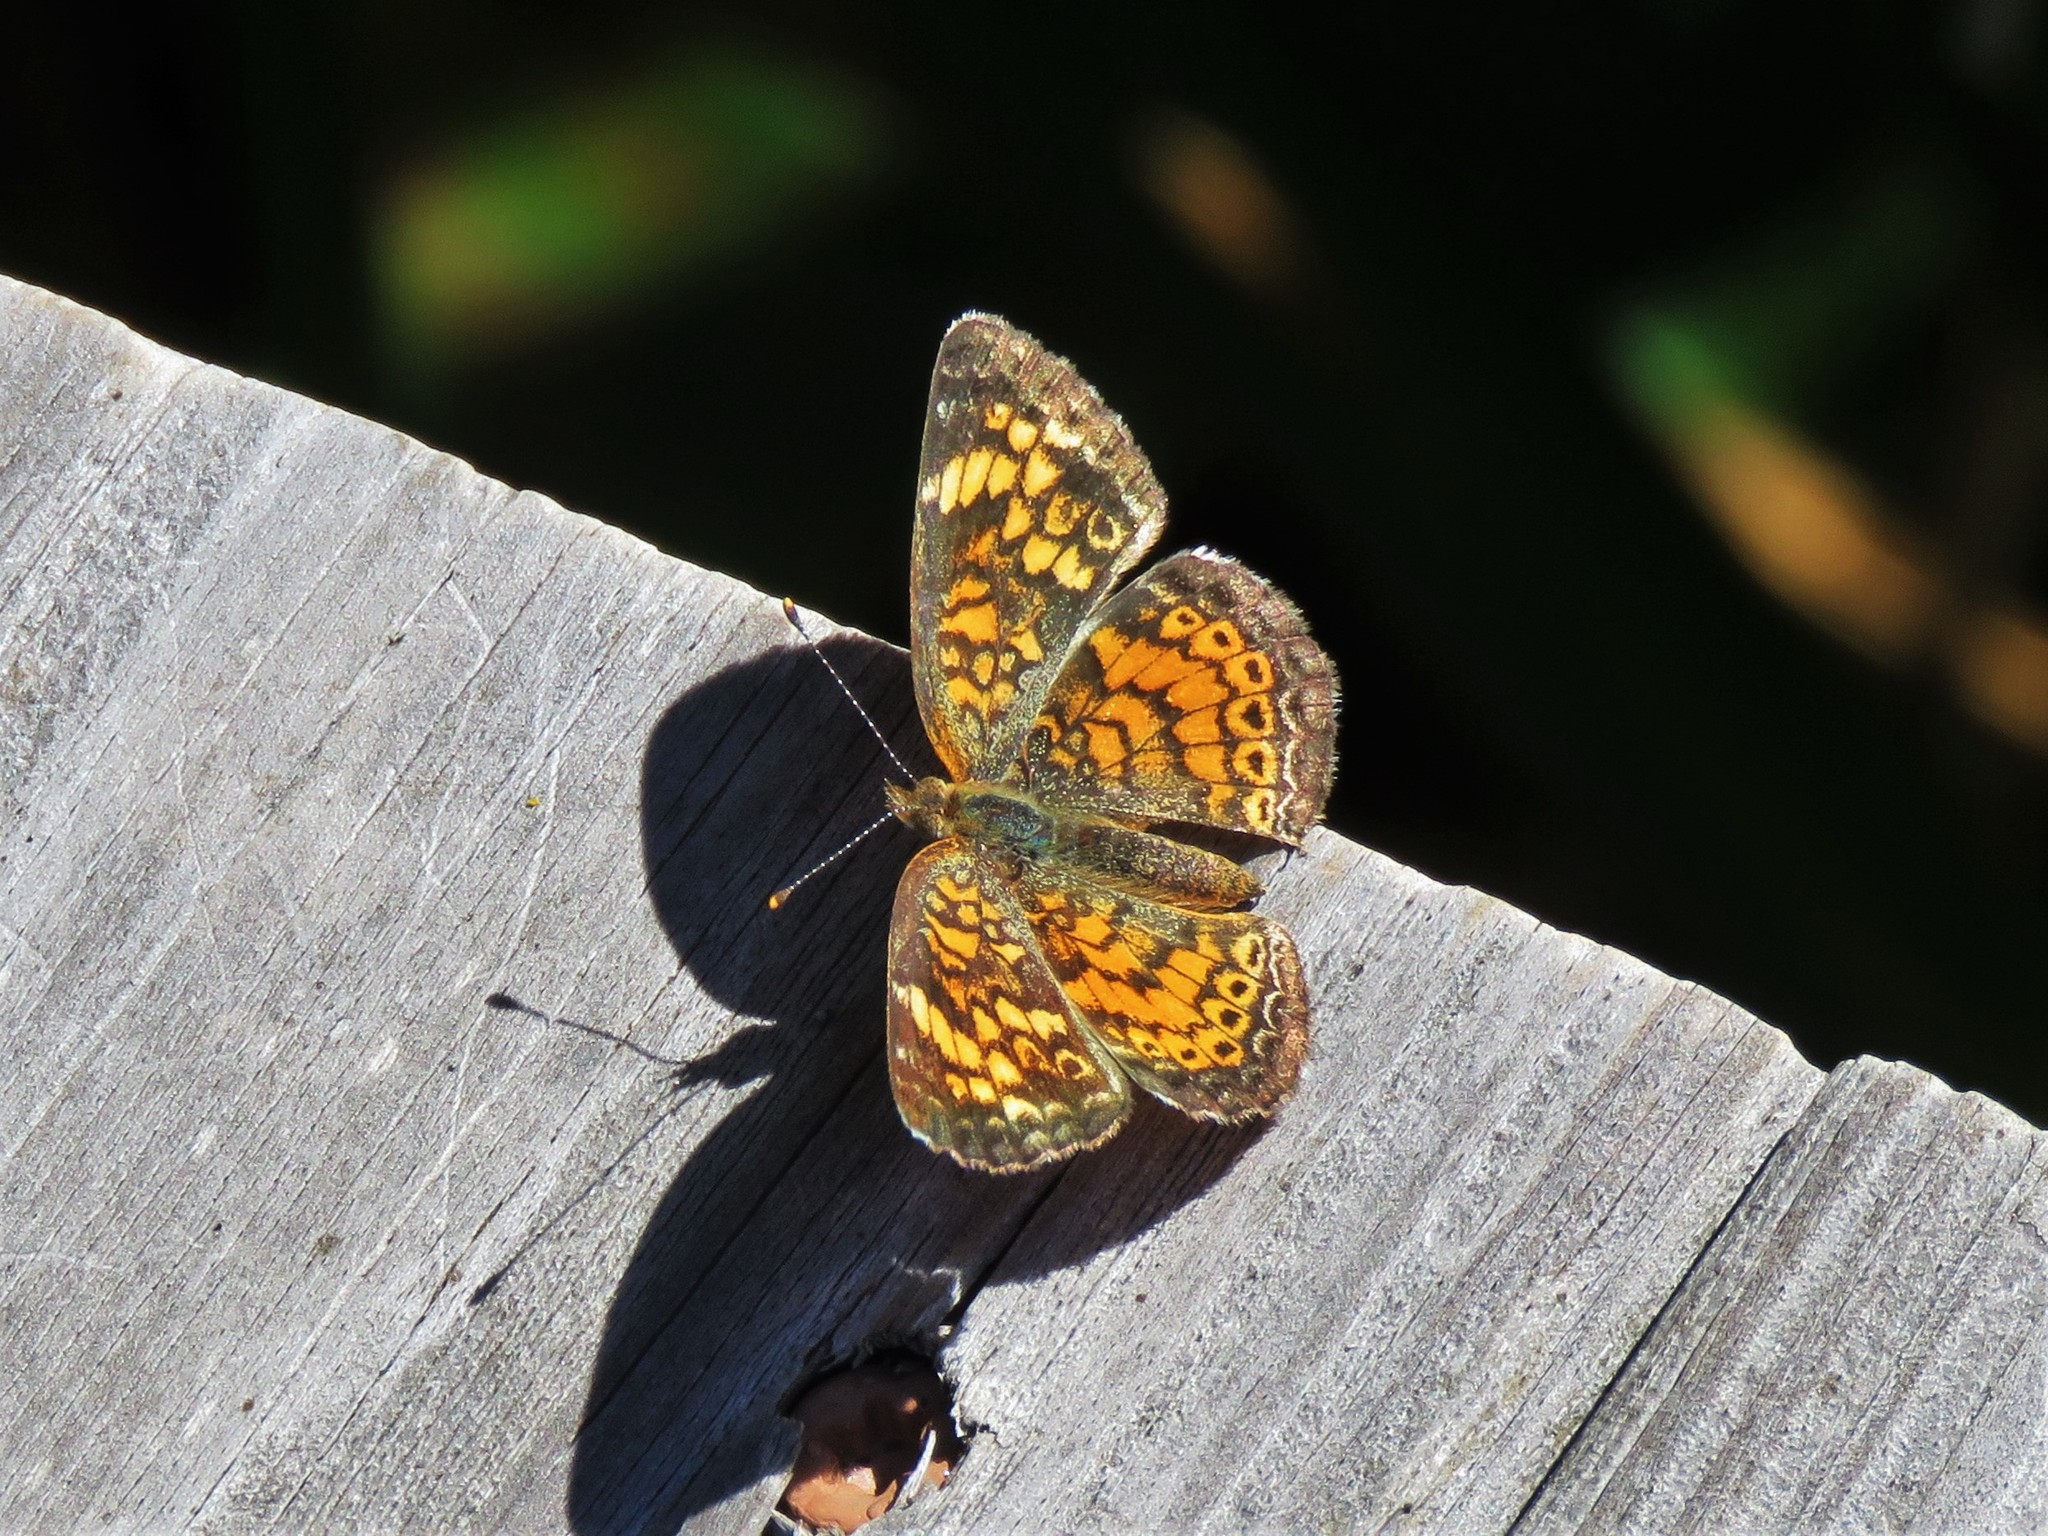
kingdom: Animalia
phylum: Arthropoda
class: Insecta
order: Lepidoptera
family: Nymphalidae
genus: Phyciodes
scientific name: Phyciodes tharos
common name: Pearl crescent
